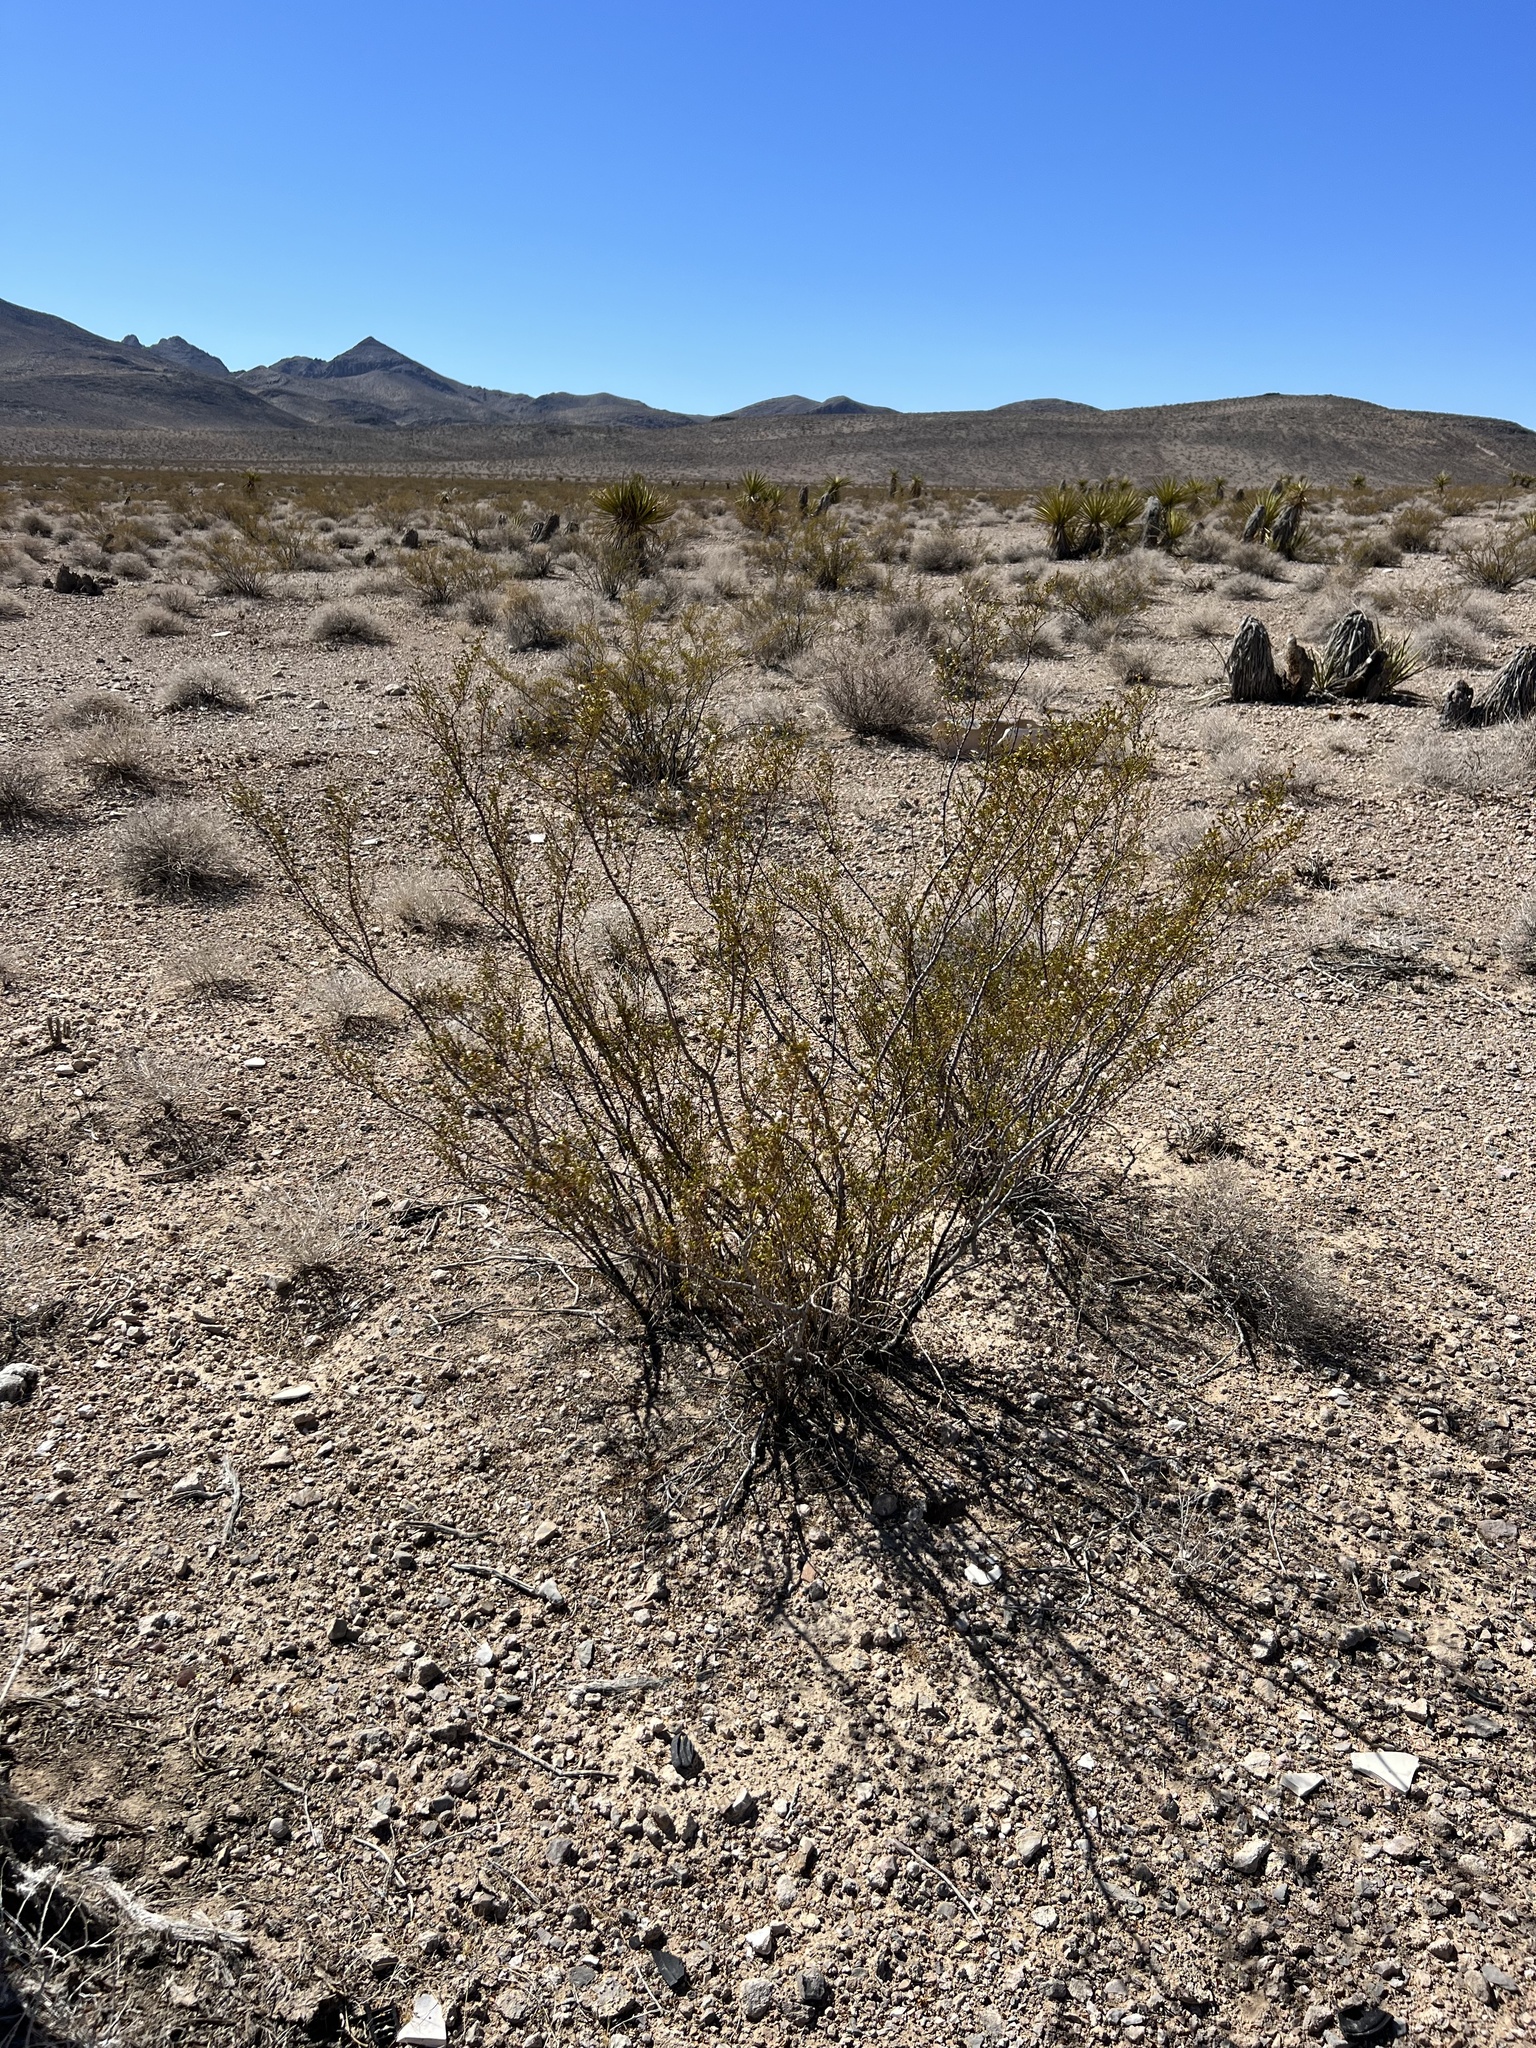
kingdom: Plantae
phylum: Tracheophyta
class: Magnoliopsida
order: Zygophyllales
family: Zygophyllaceae
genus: Larrea
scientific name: Larrea tridentata
